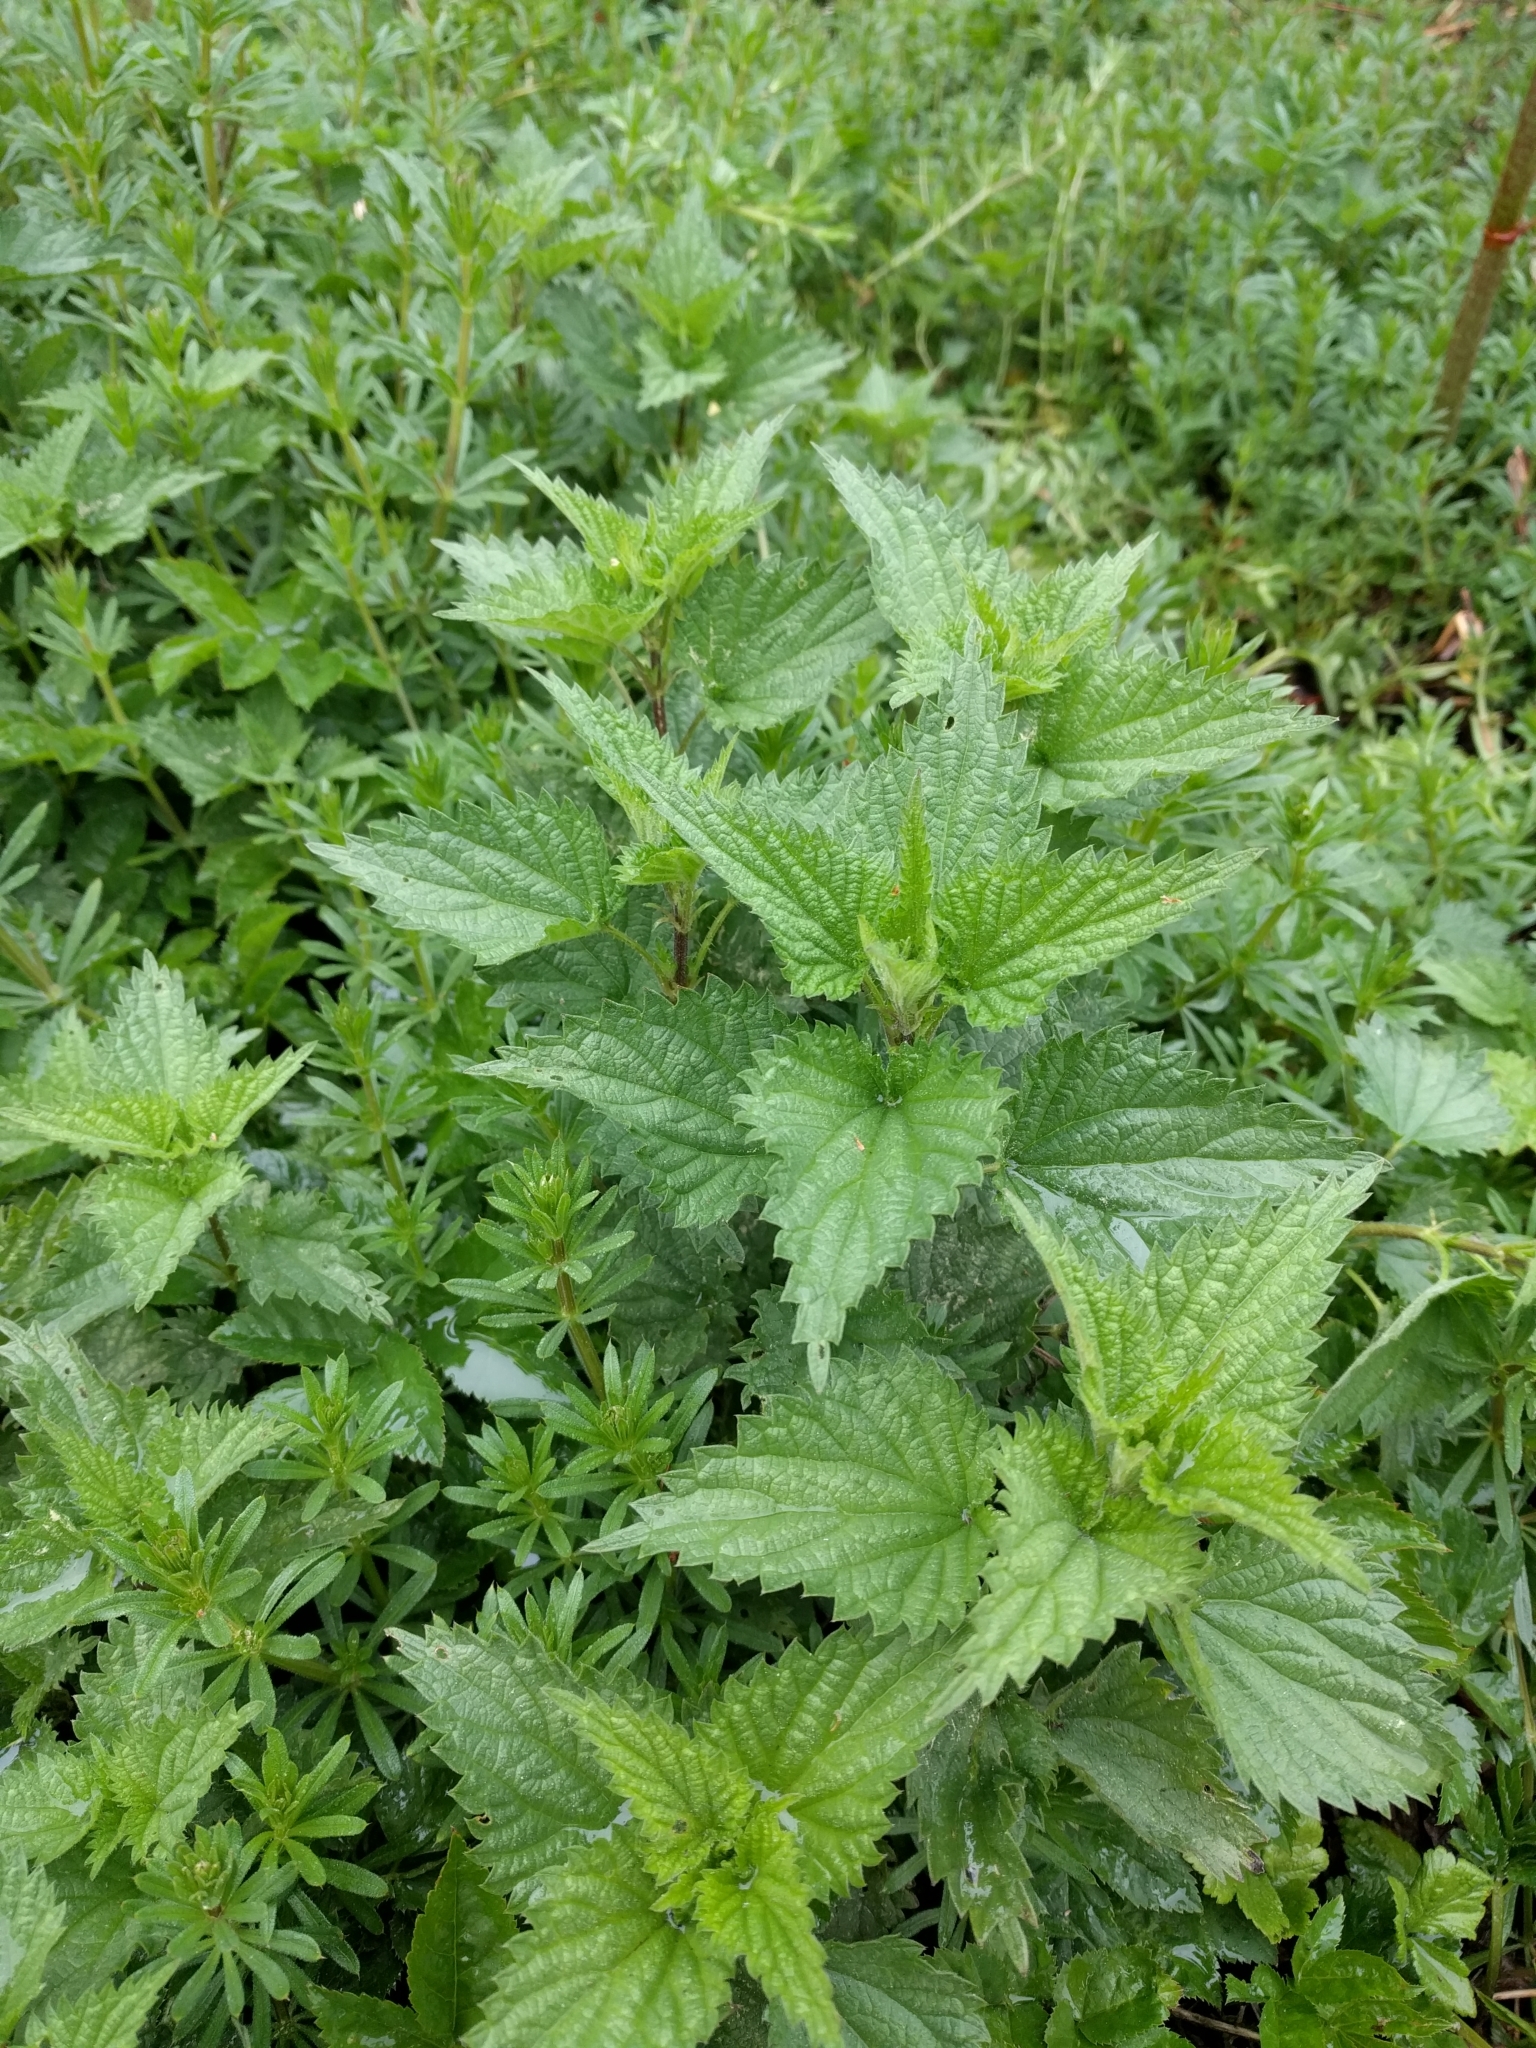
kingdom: Plantae
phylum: Tracheophyta
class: Magnoliopsida
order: Rosales
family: Urticaceae
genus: Urtica
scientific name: Urtica dioica
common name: Common nettle
